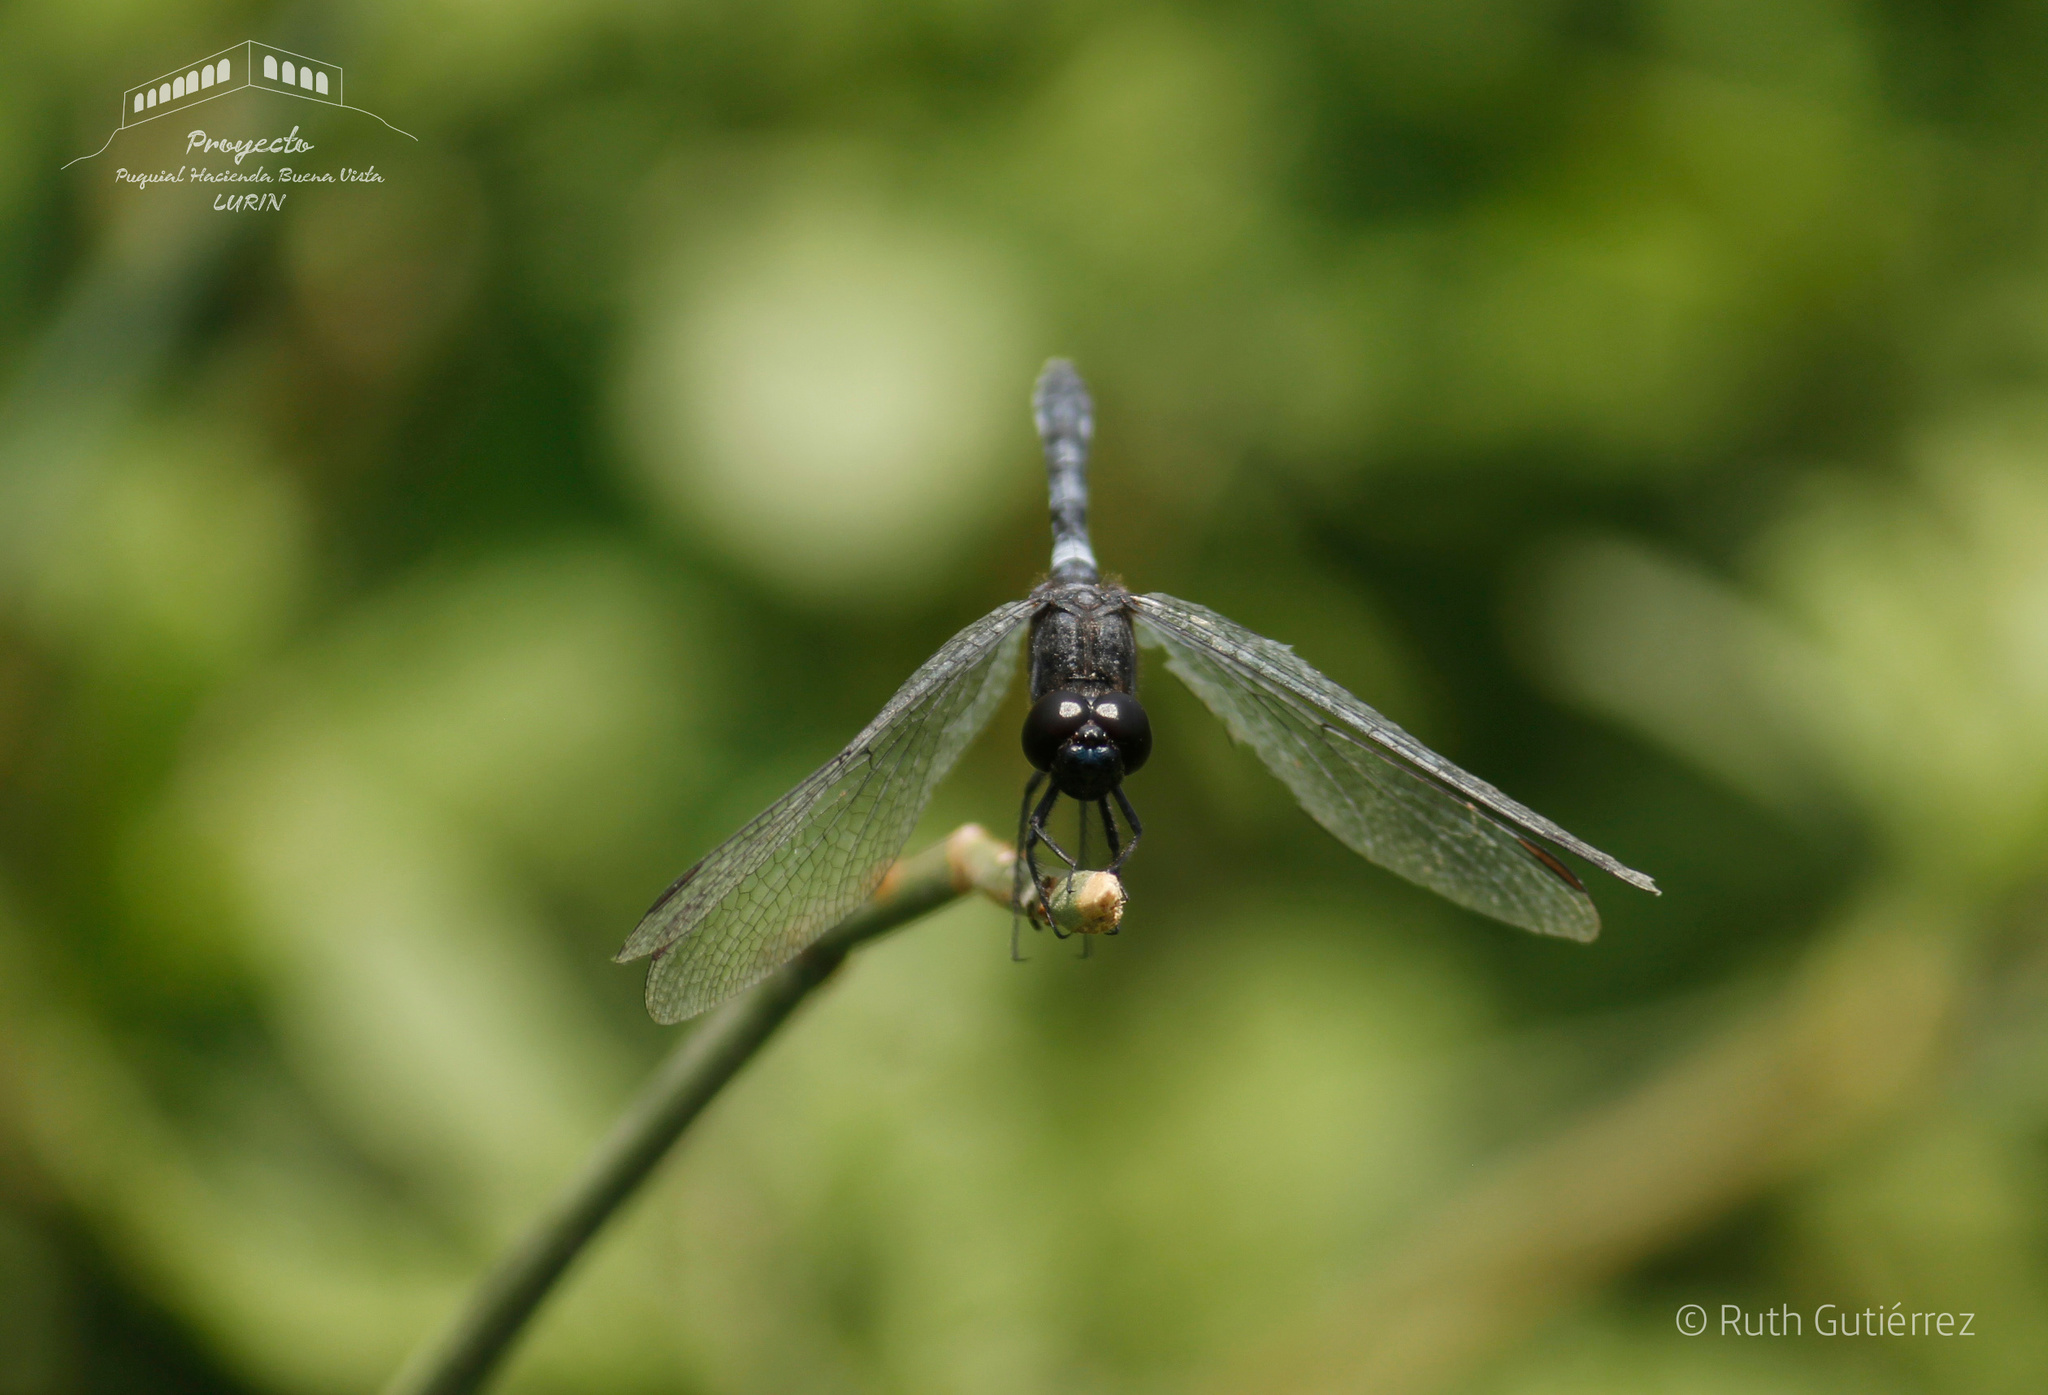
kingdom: Animalia
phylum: Arthropoda
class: Insecta
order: Odonata
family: Libellulidae
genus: Erythrodiplax
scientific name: Erythrodiplax cleopatra
